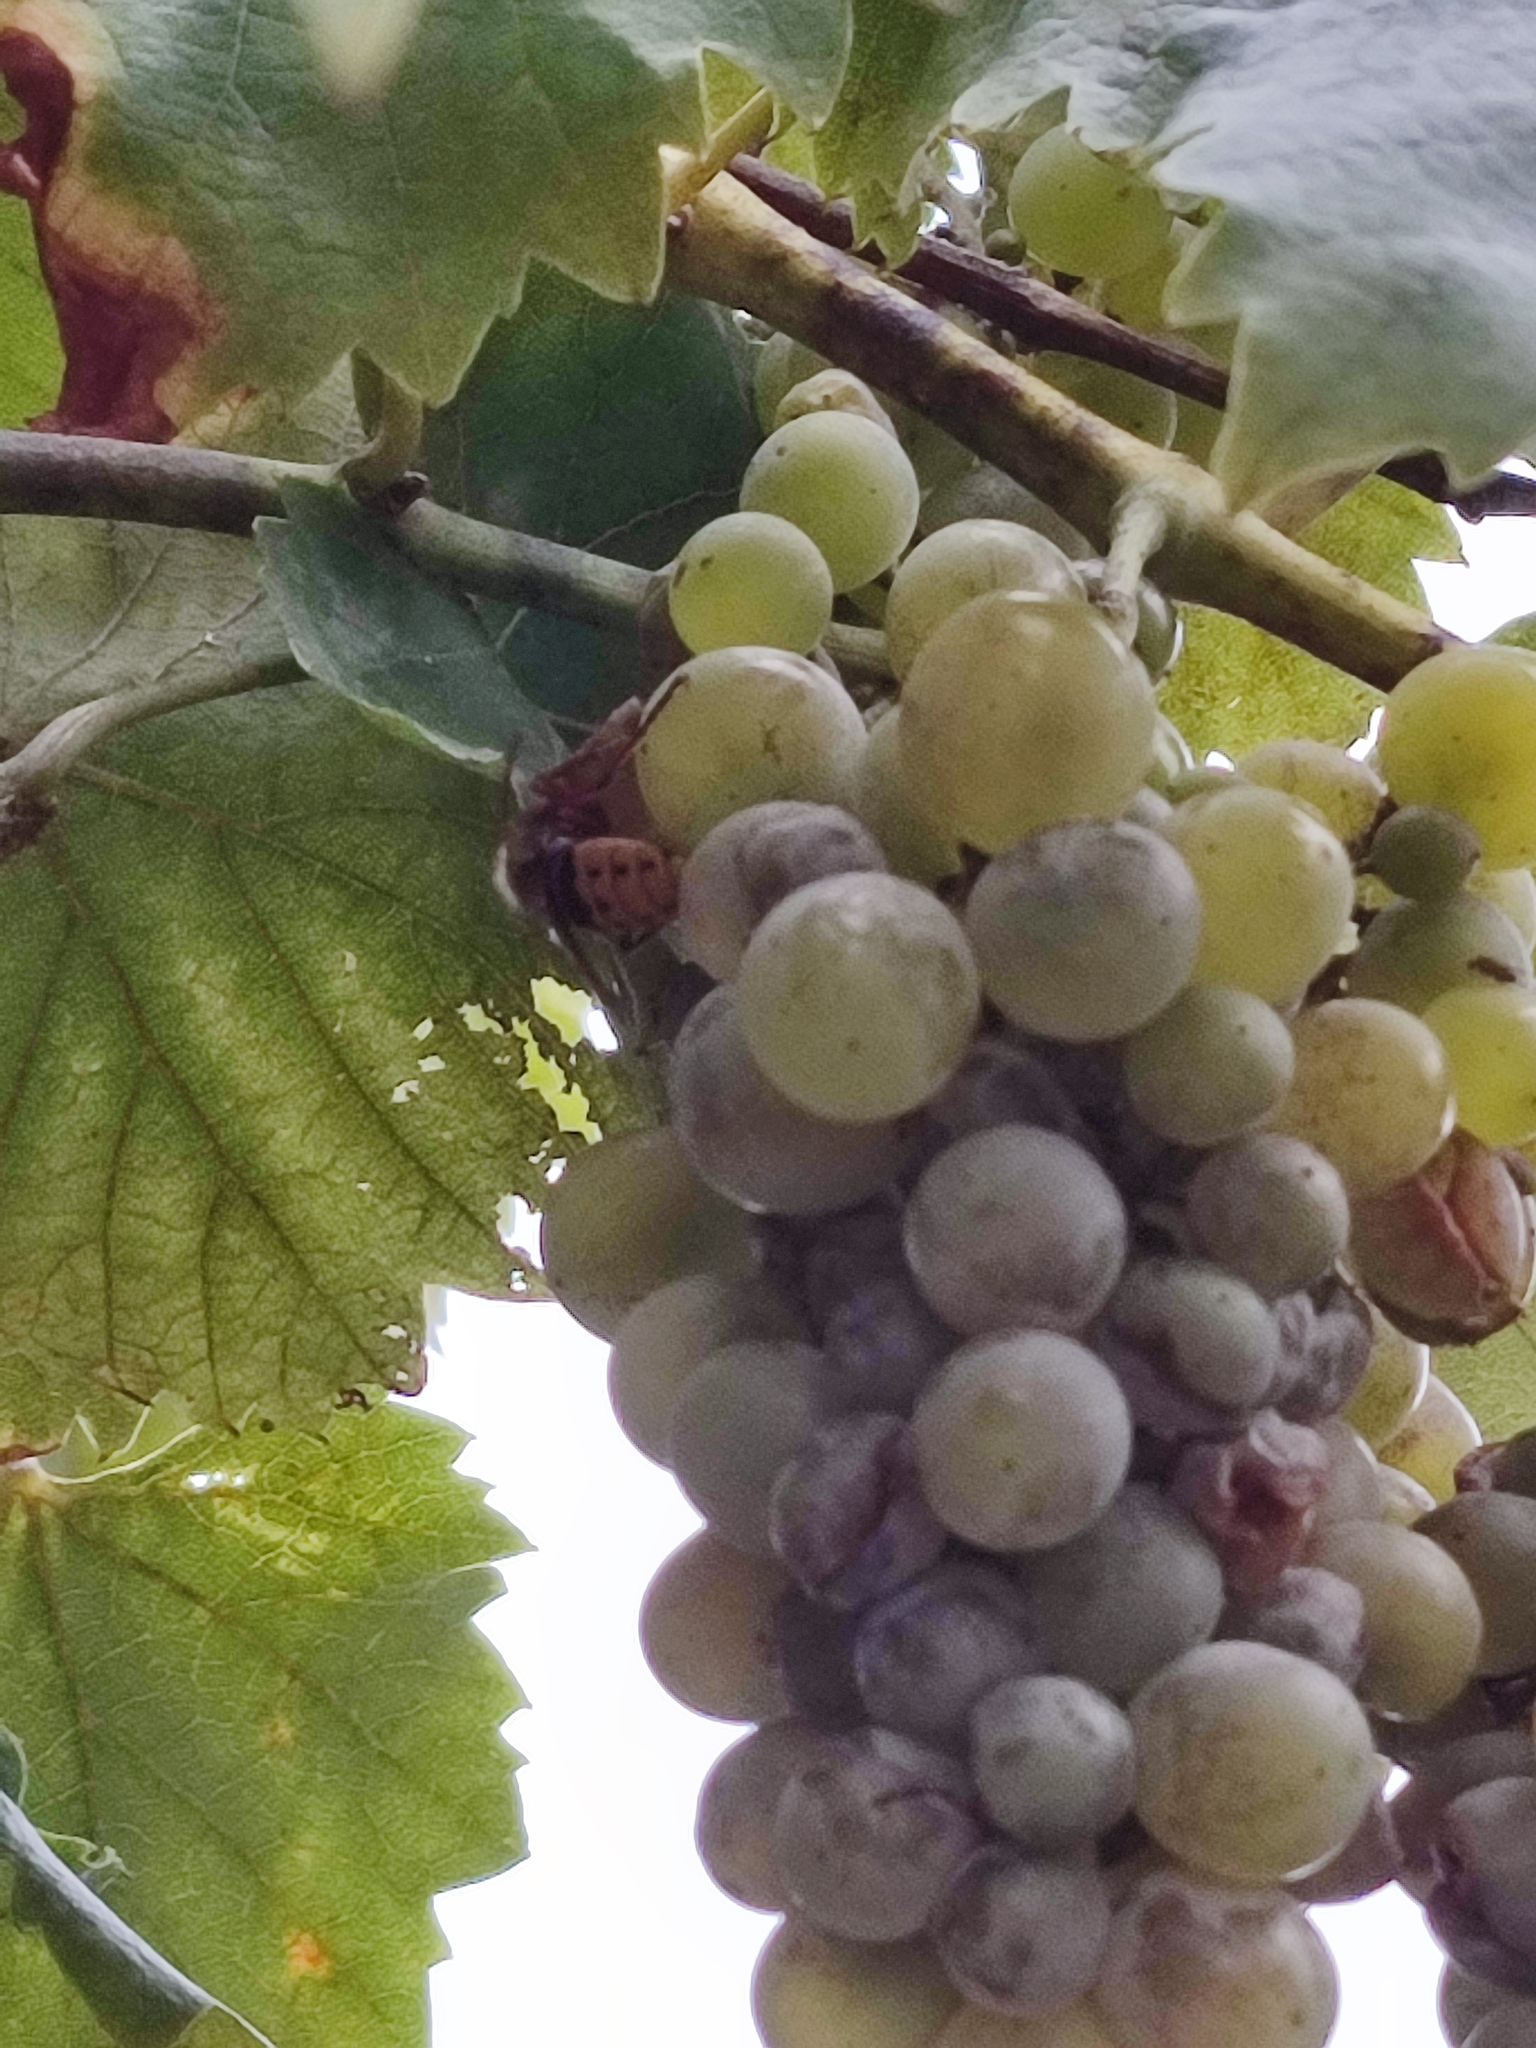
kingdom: Animalia
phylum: Arthropoda
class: Insecta
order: Hymenoptera
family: Vespidae
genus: Vespa
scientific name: Vespa crabro
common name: Hornet
